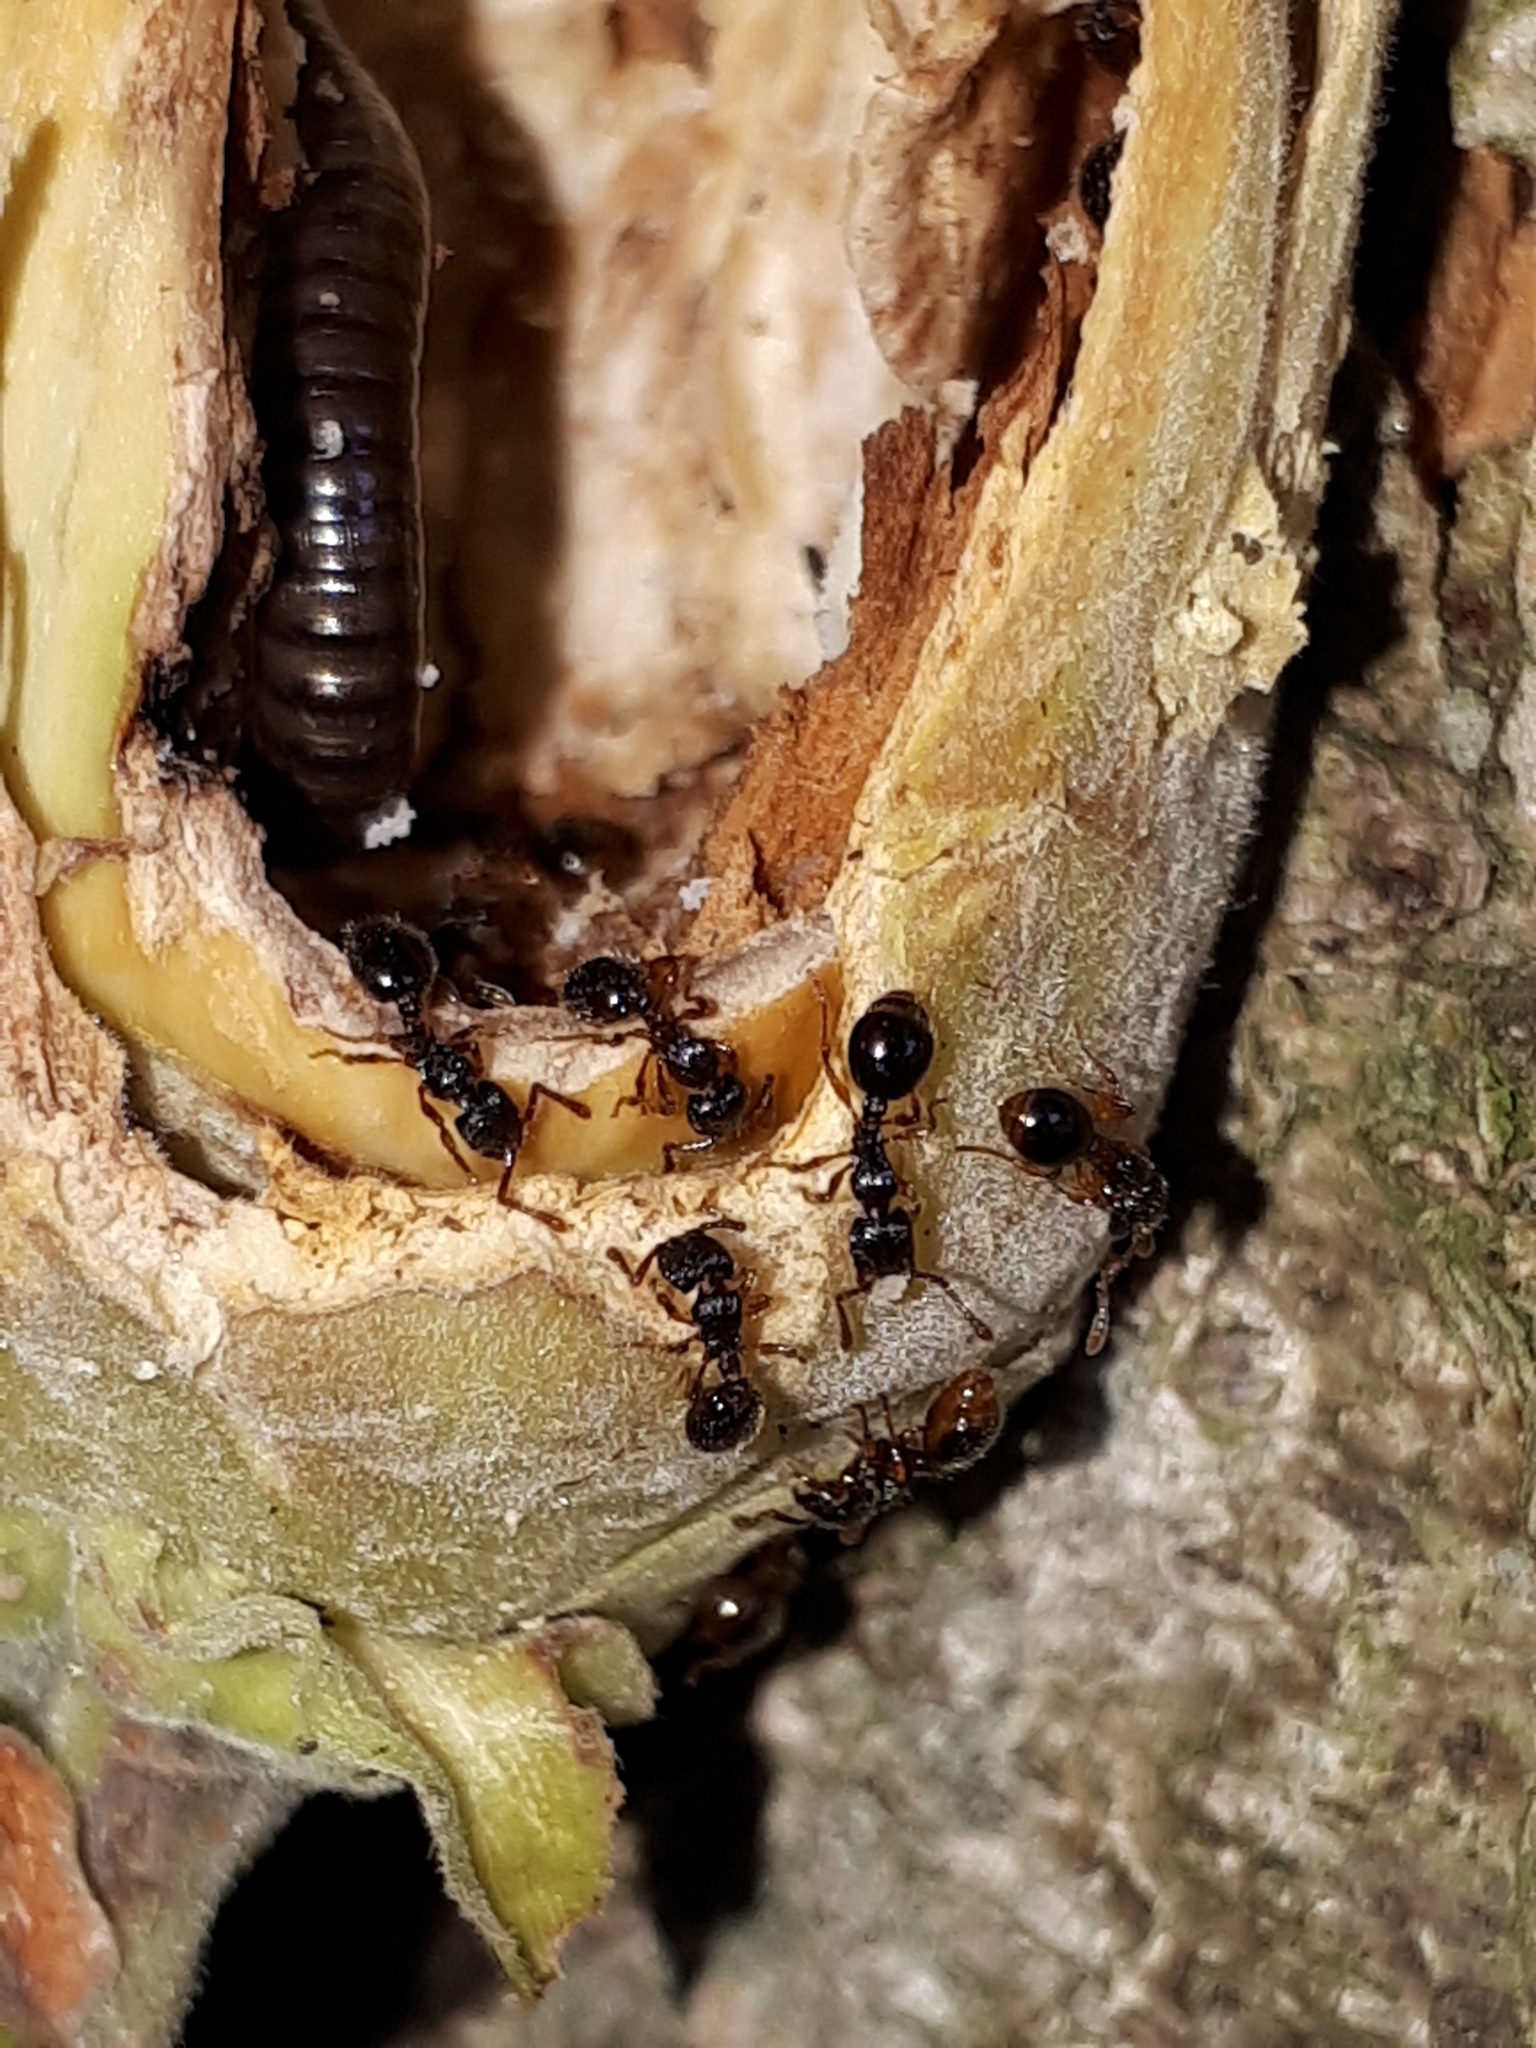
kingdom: Animalia
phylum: Arthropoda
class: Insecta
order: Hymenoptera
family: Formicidae
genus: Myrmecina
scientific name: Myrmecina graminicola
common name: Grass ant
